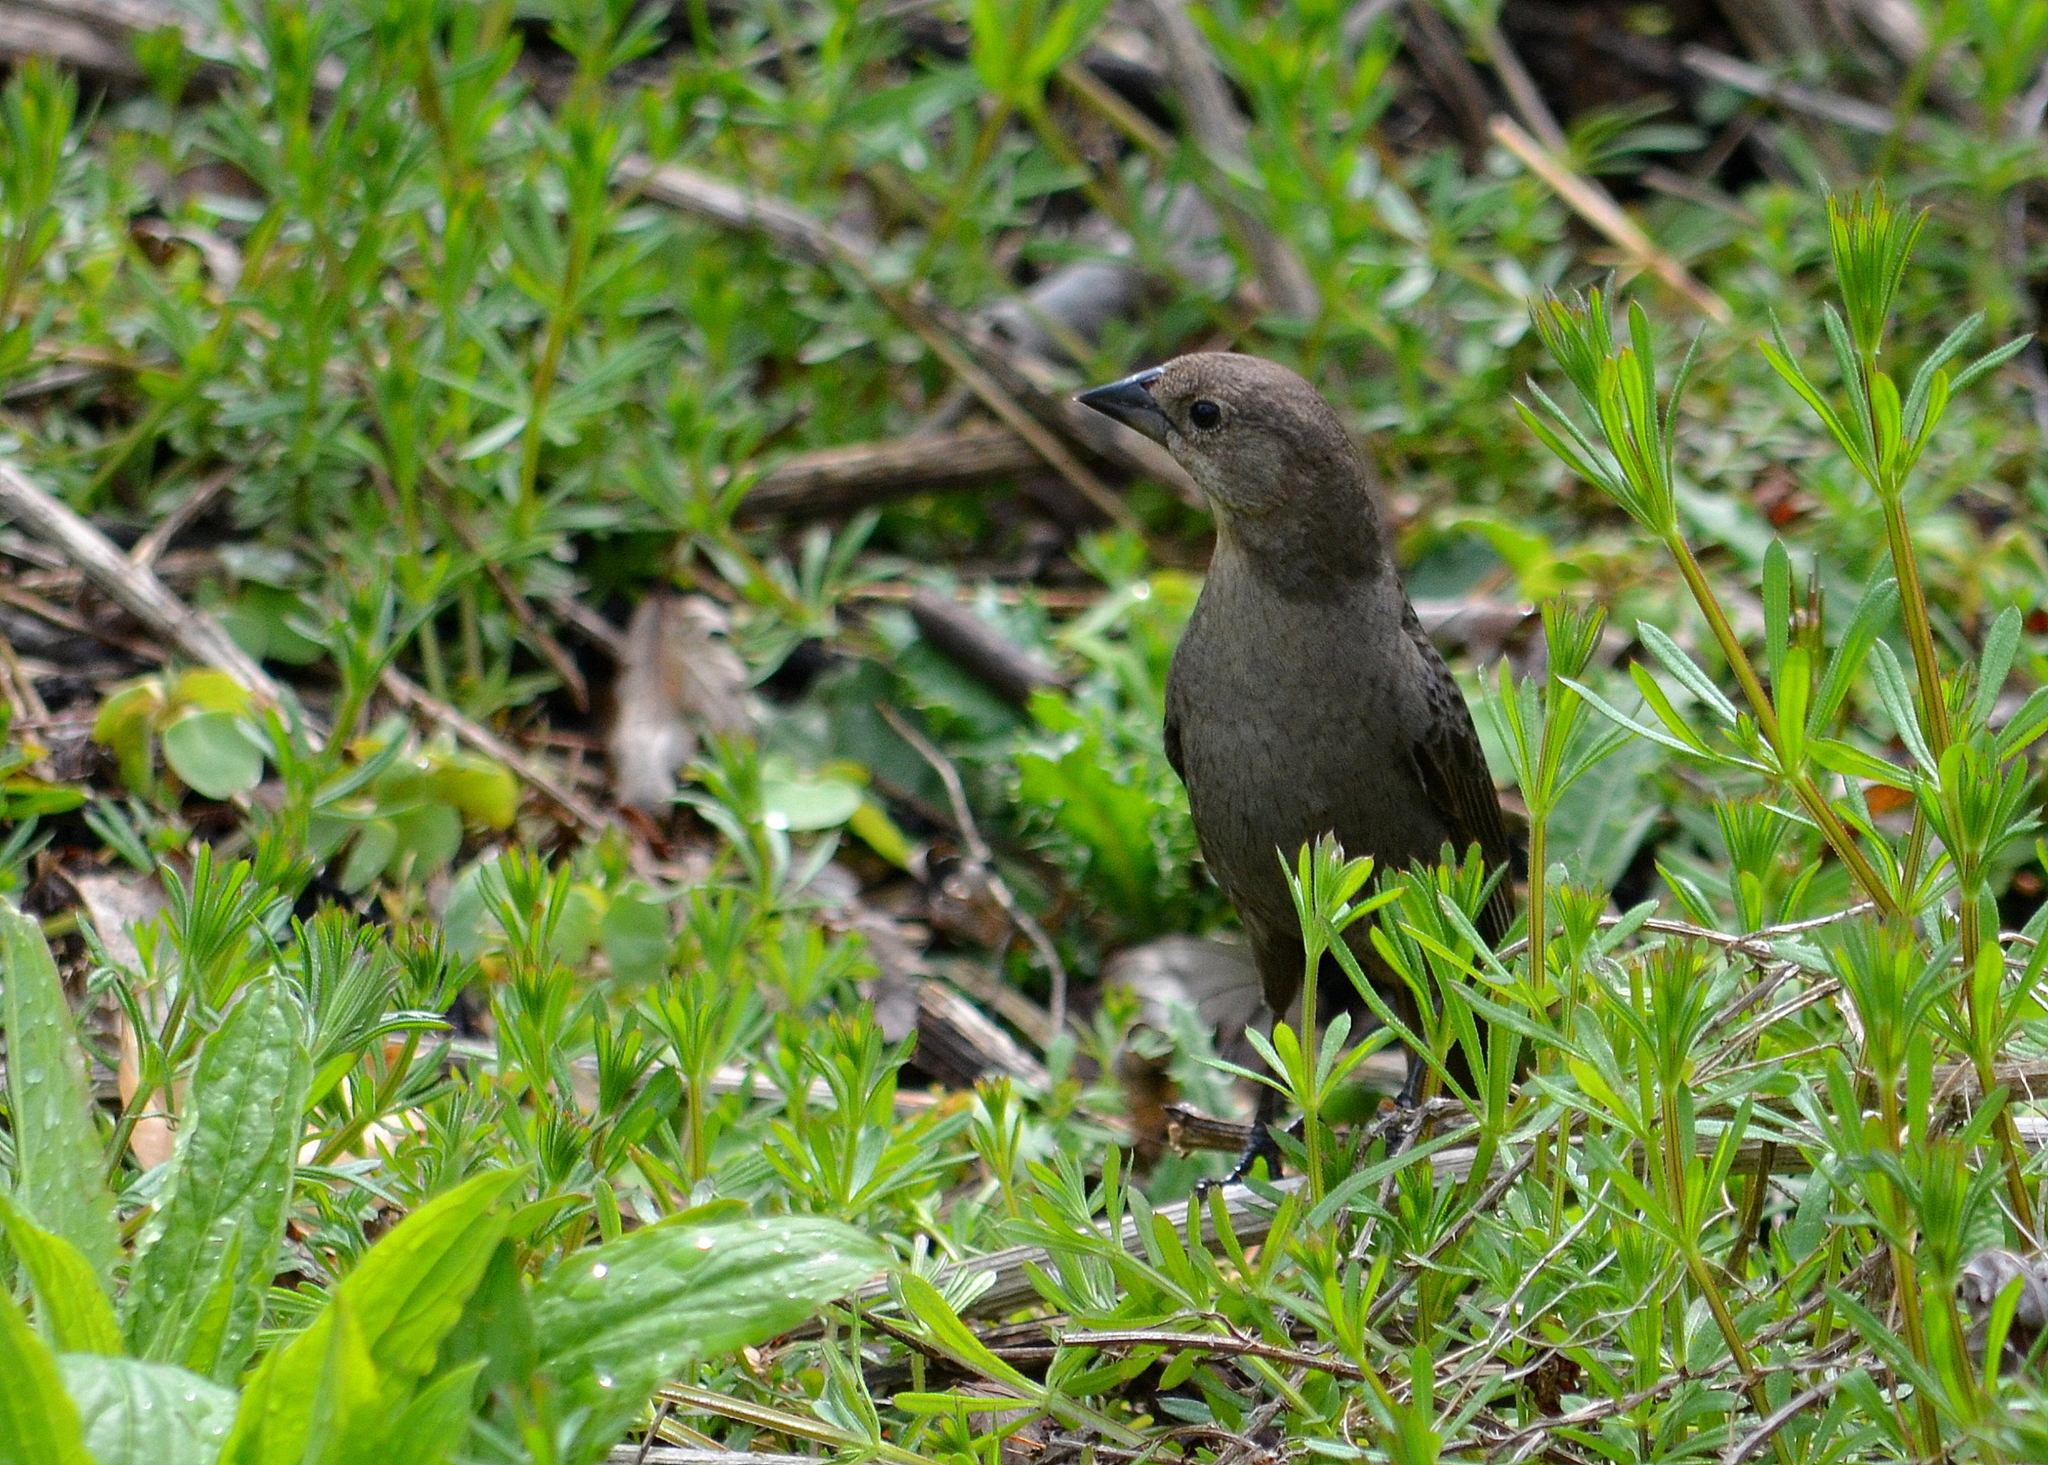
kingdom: Animalia
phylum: Chordata
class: Aves
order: Passeriformes
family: Icteridae
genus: Molothrus
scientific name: Molothrus ater
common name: Brown-headed cowbird
